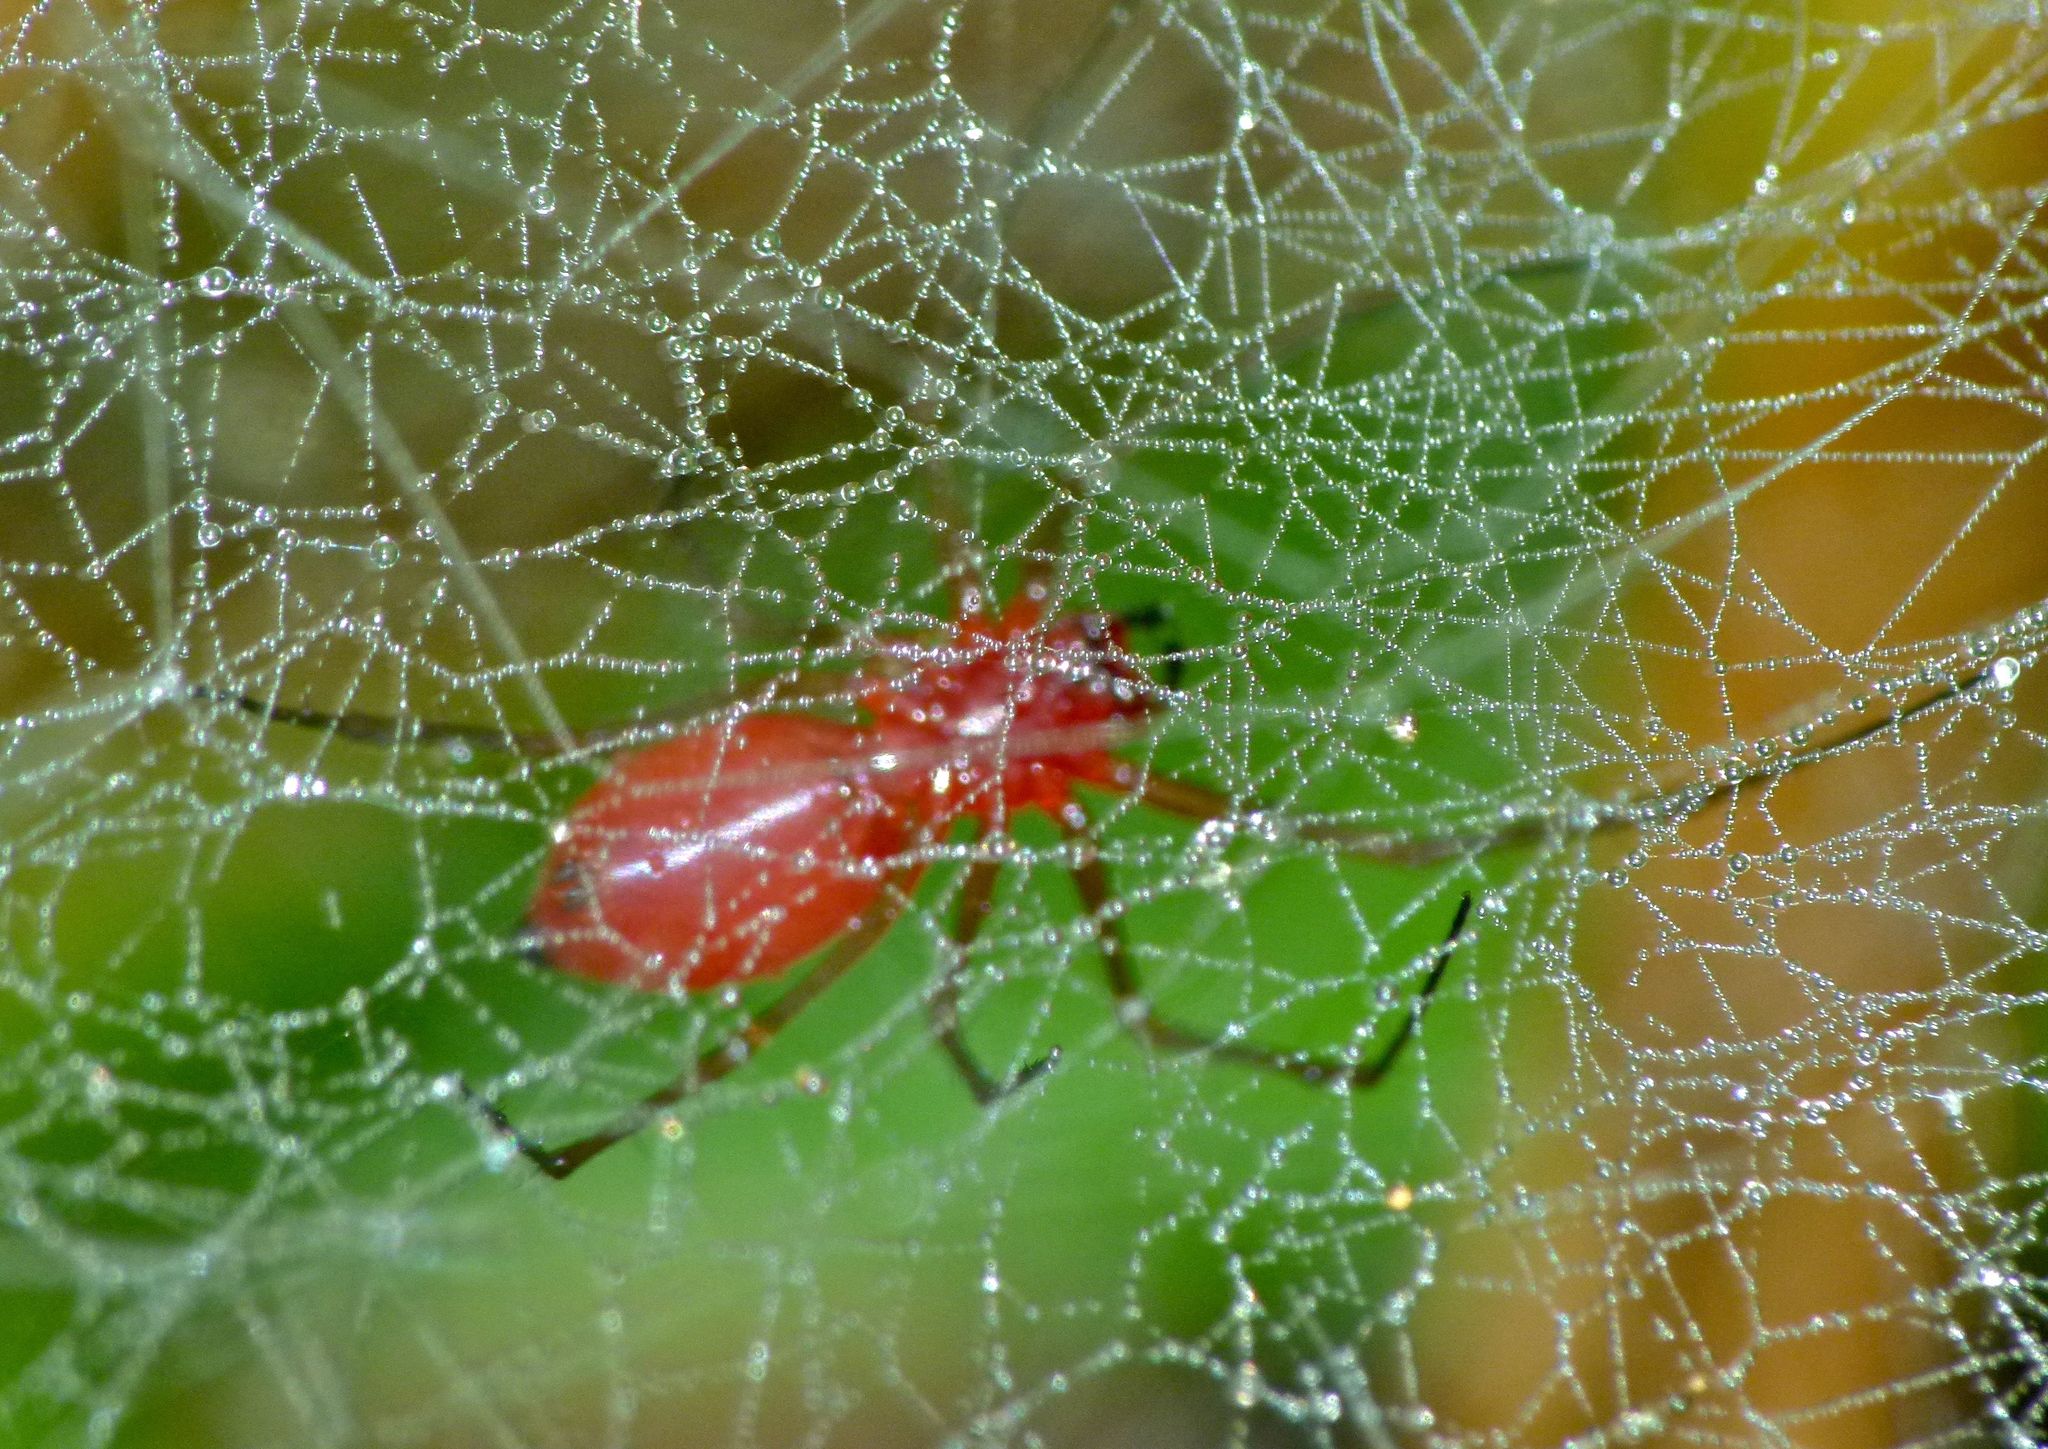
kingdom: Animalia
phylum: Arthropoda
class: Arachnida
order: Araneae
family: Linyphiidae
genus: Florinda
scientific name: Florinda coccinea
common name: Black-tailed red sheetweaver
